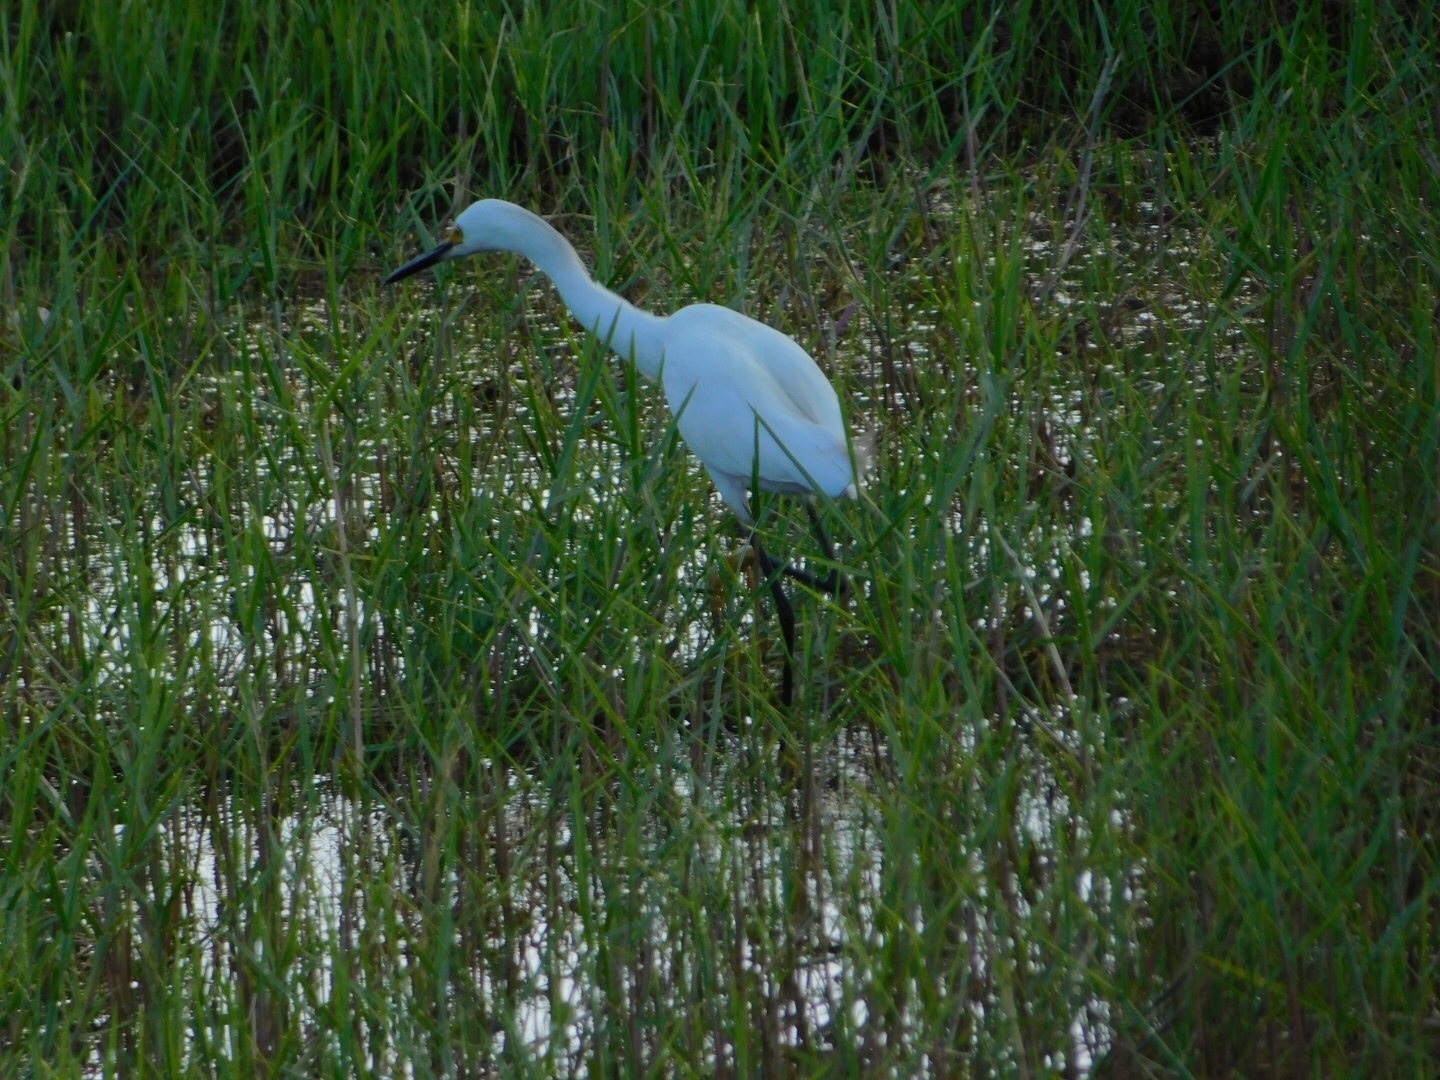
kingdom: Animalia
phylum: Chordata
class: Aves
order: Pelecaniformes
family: Ardeidae
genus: Egretta
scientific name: Egretta thula
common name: Snowy egret
